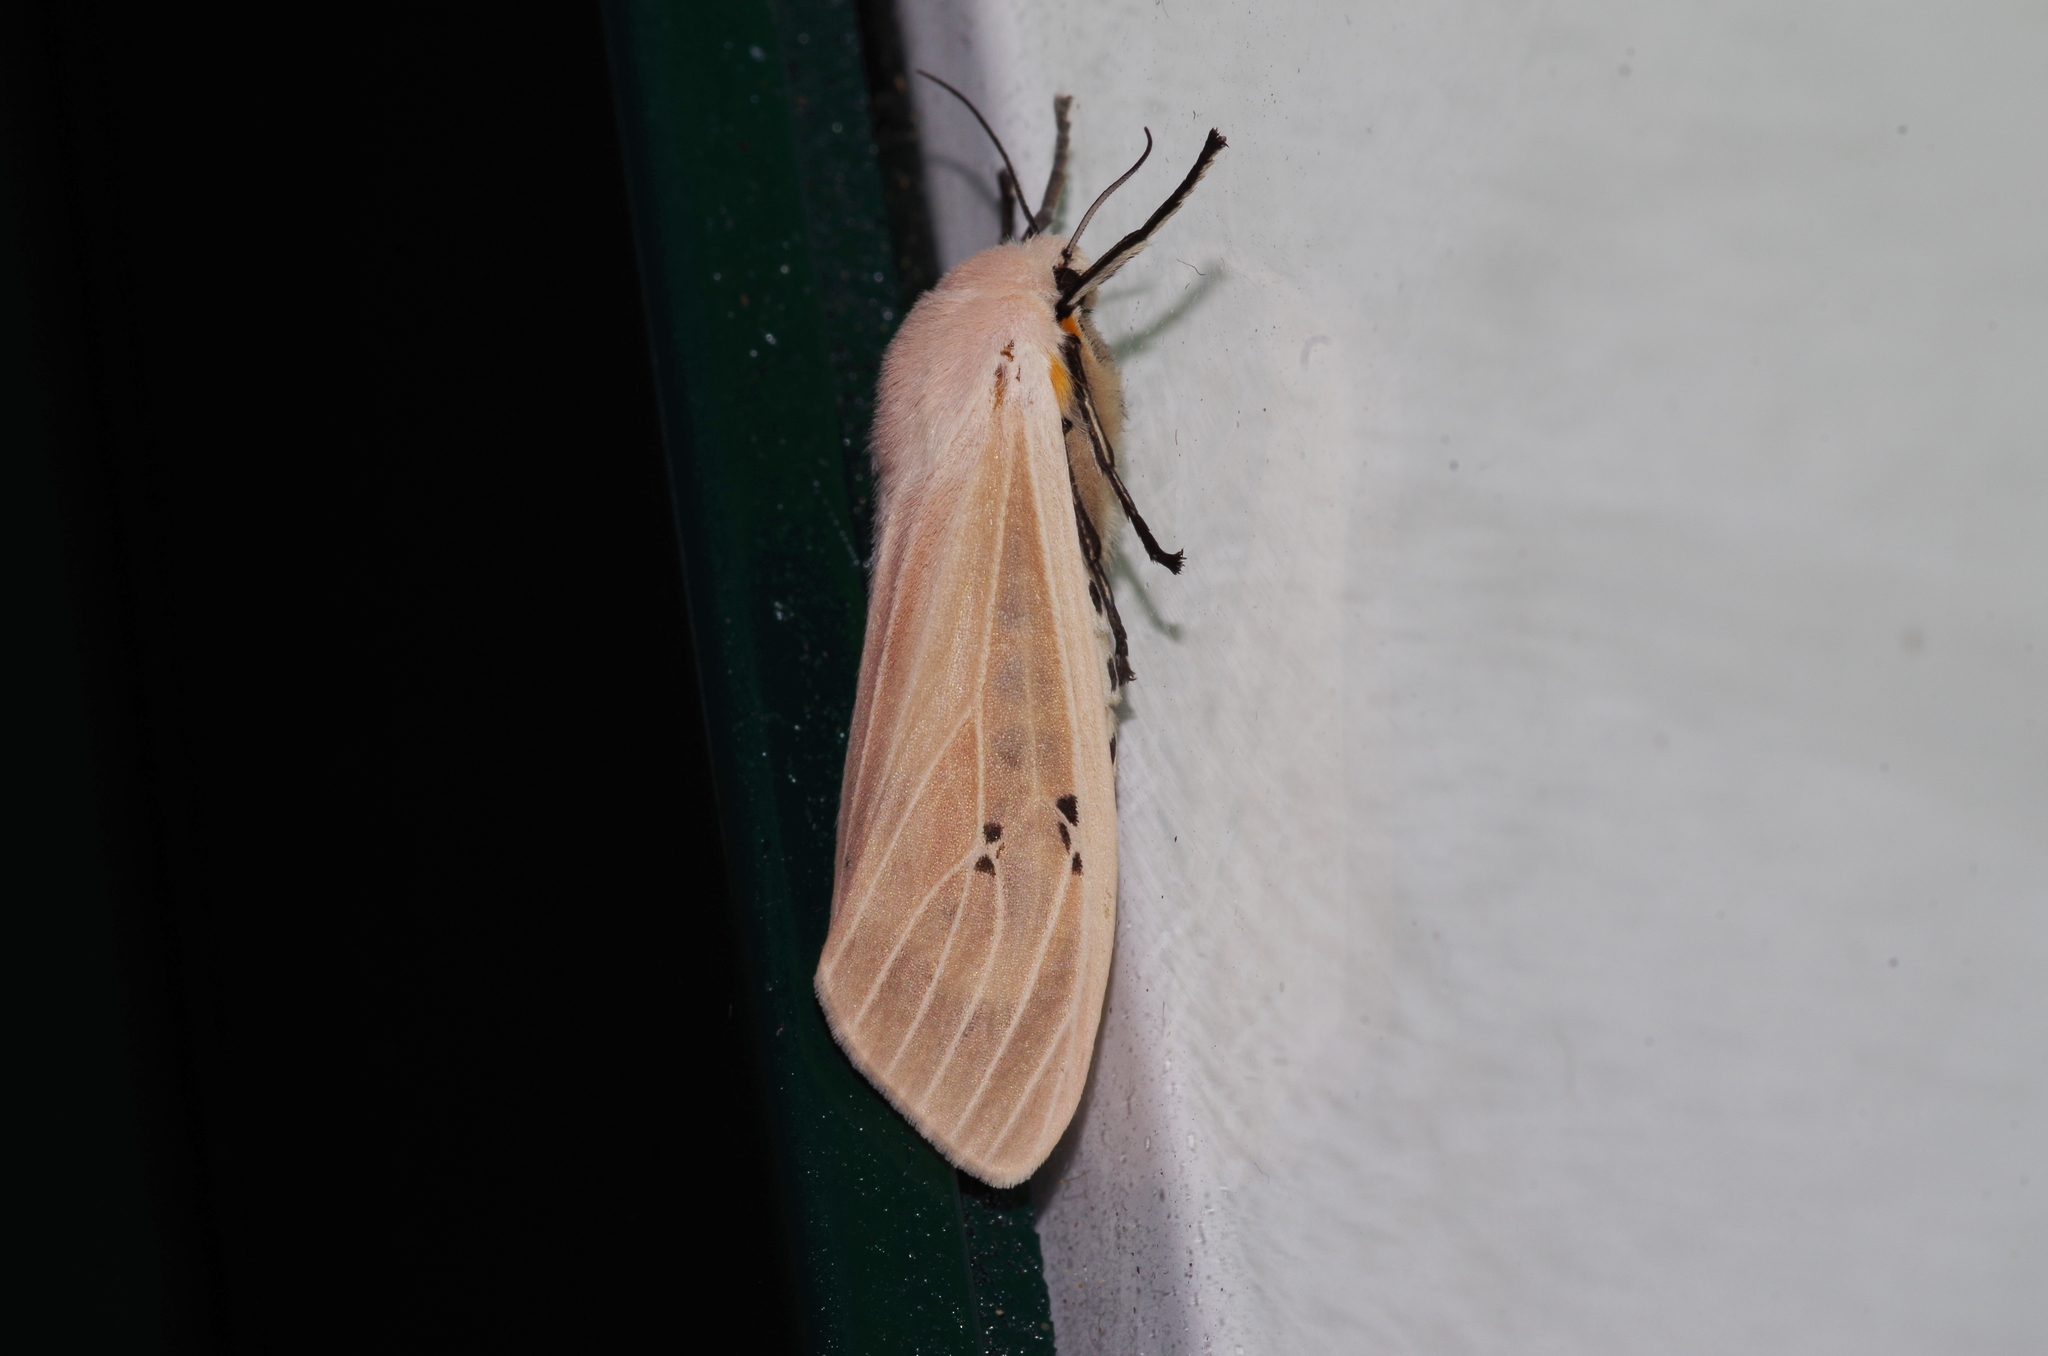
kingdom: Animalia
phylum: Arthropoda
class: Insecta
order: Lepidoptera
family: Erebidae
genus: Creatonotos
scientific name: Creatonotos transiens
